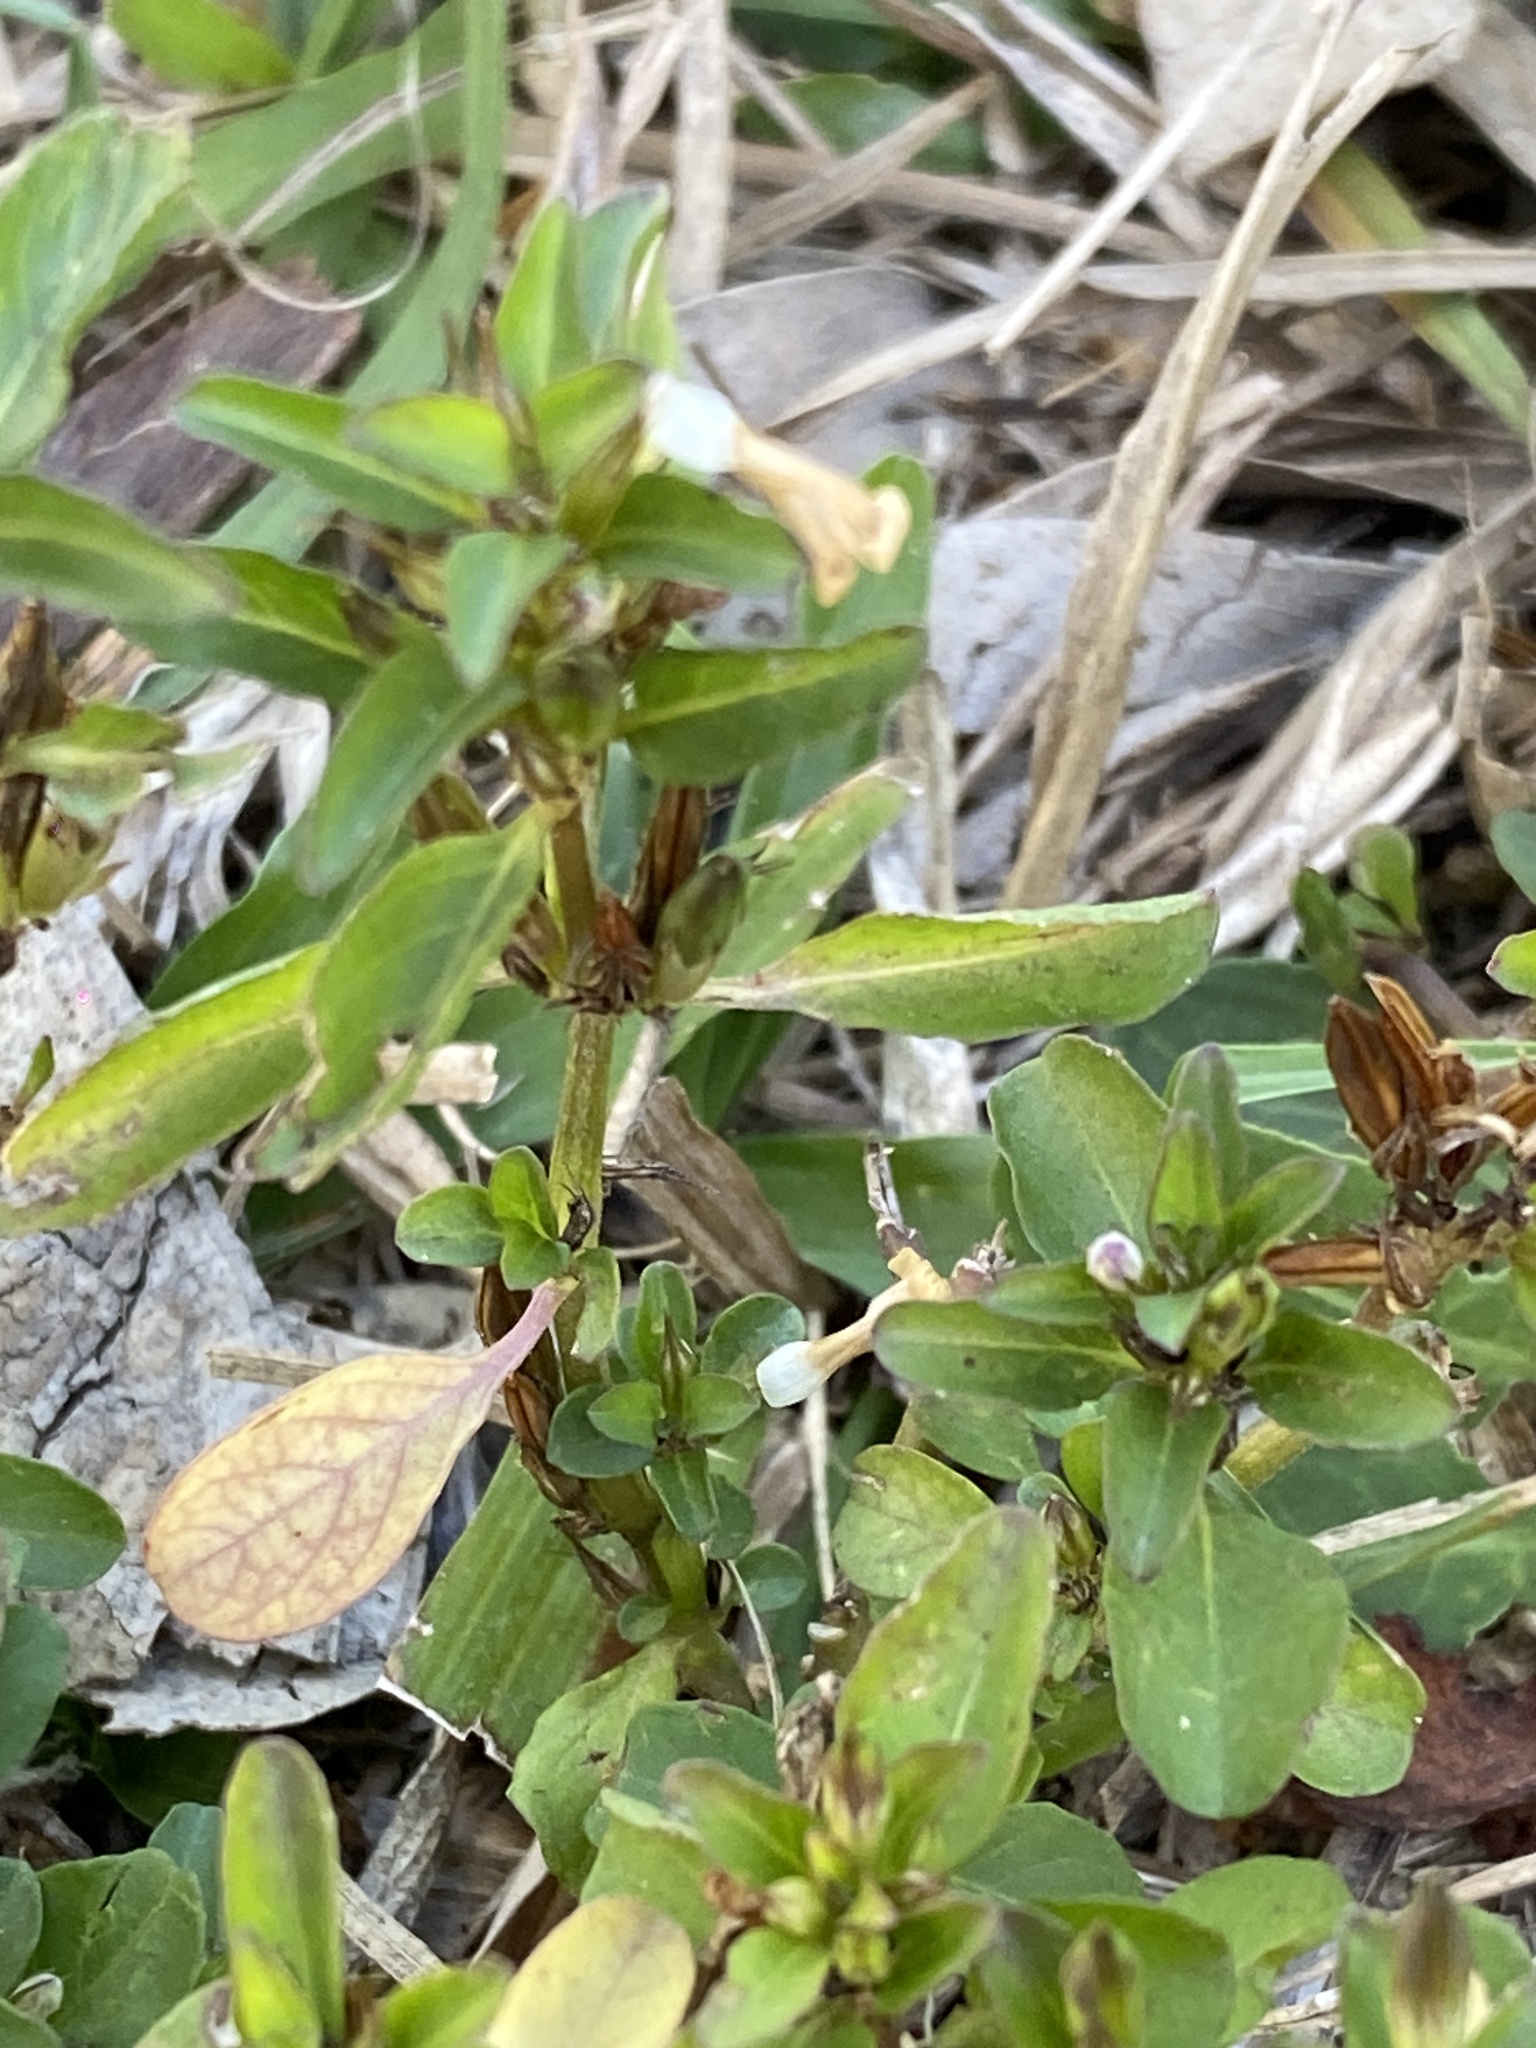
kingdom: Plantae
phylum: Tracheophyta
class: Magnoliopsida
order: Lamiales
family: Acanthaceae
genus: Hygrophila
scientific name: Hygrophila erecta
